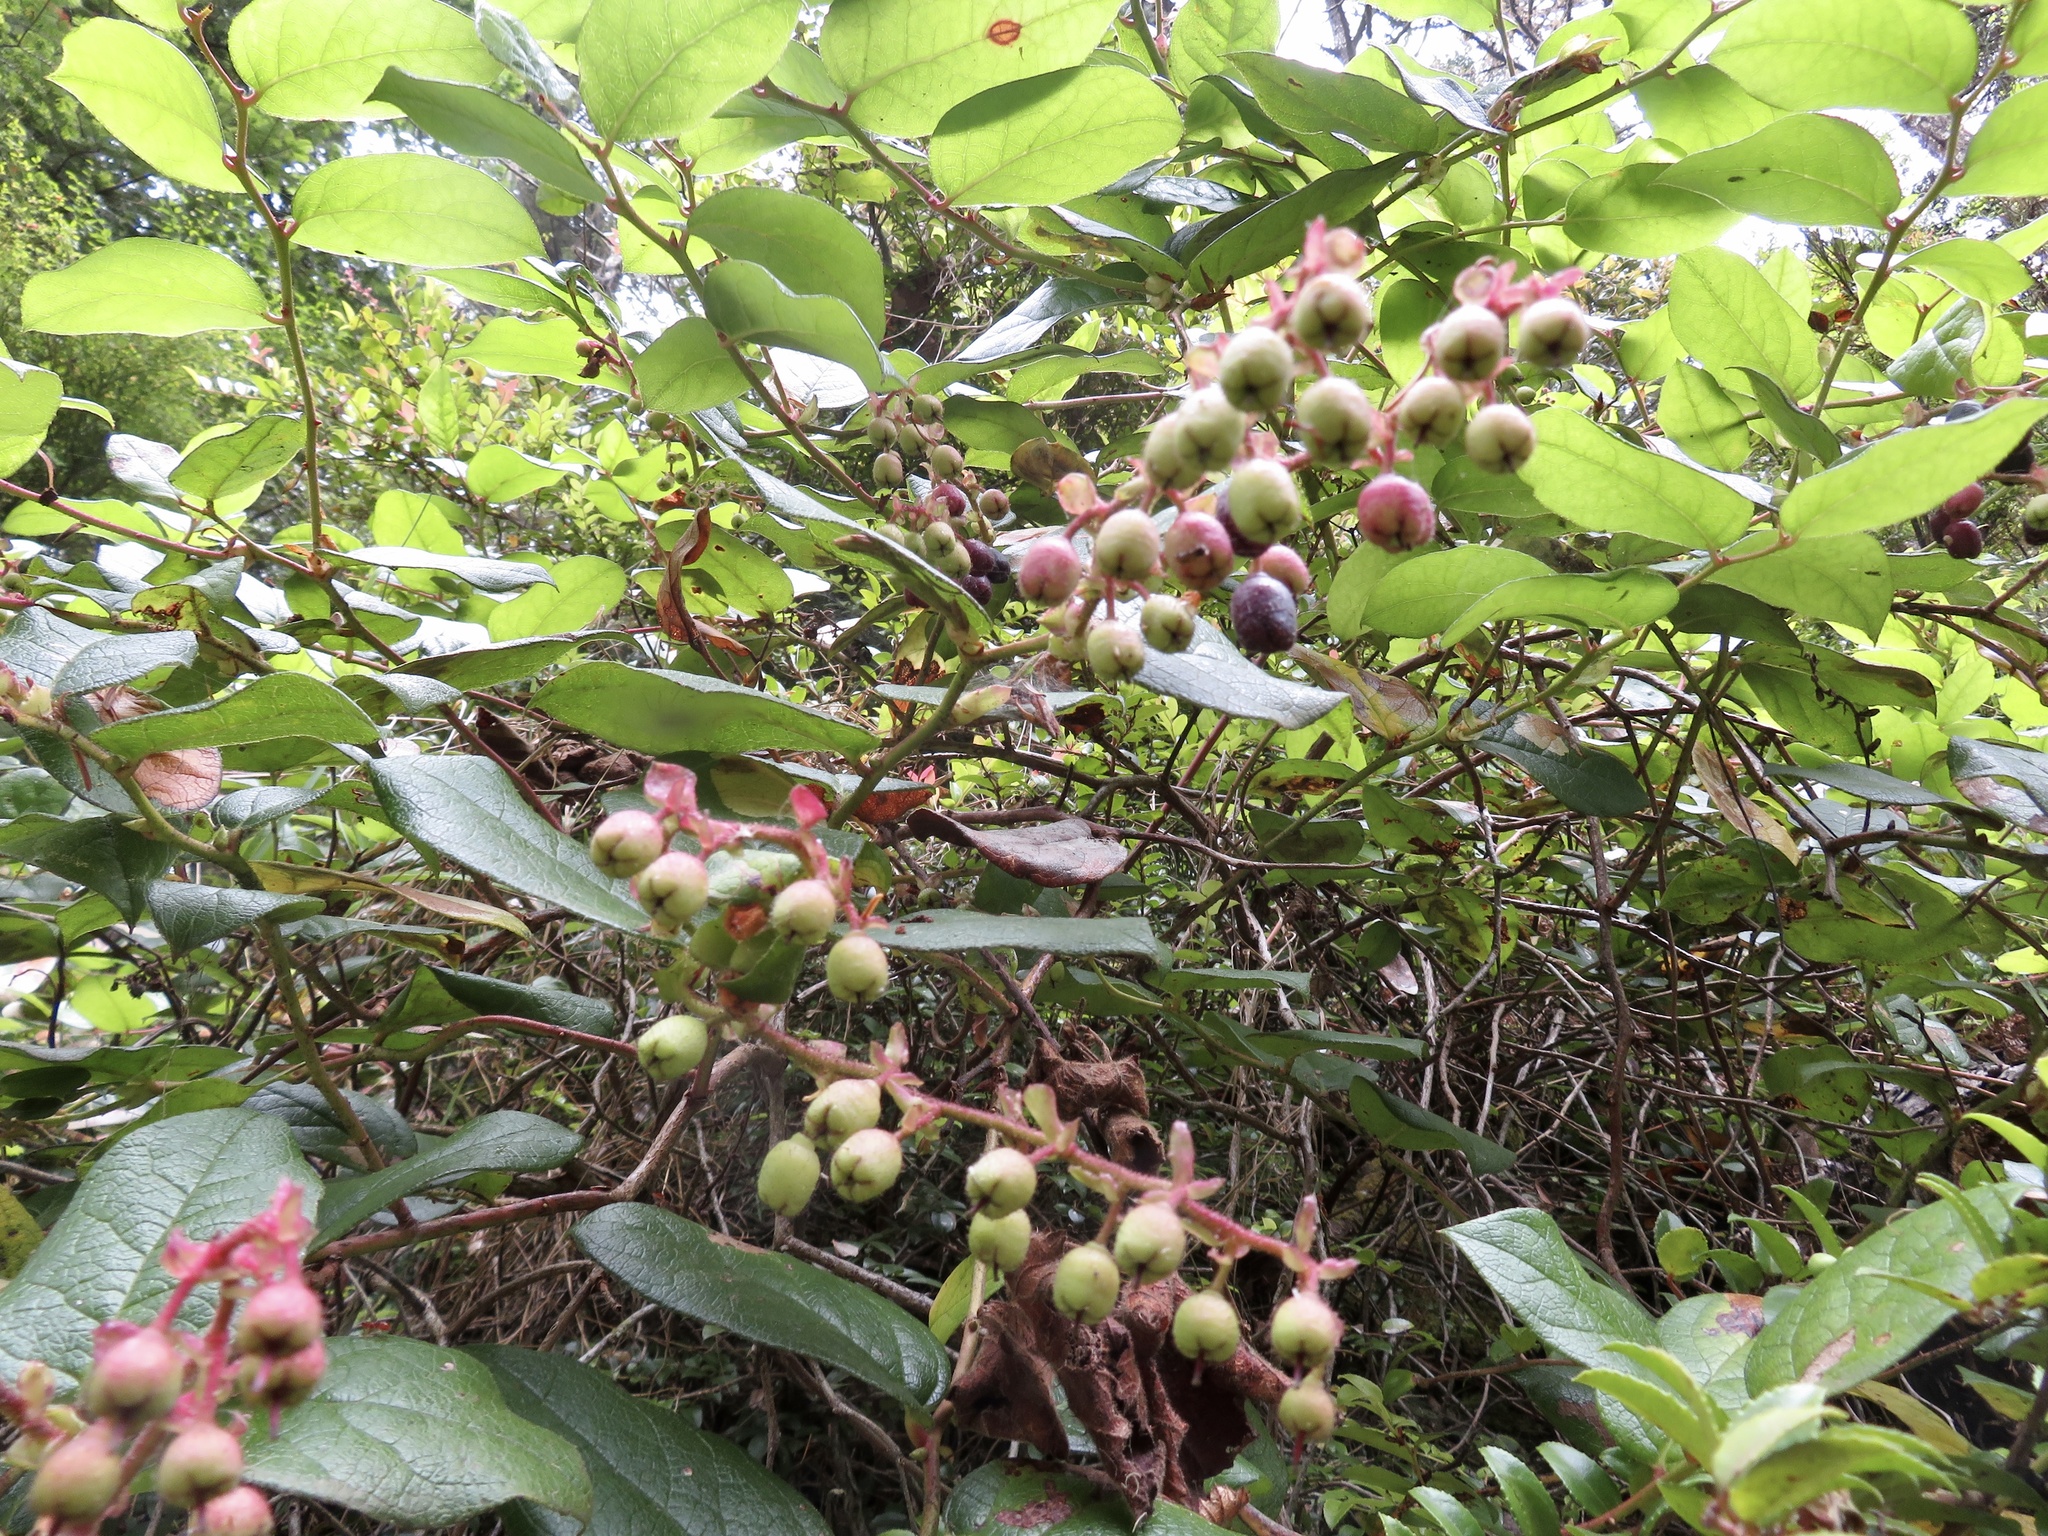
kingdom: Plantae
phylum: Tracheophyta
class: Magnoliopsida
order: Ericales
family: Ericaceae
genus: Gaultheria
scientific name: Gaultheria shallon
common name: Shallon
